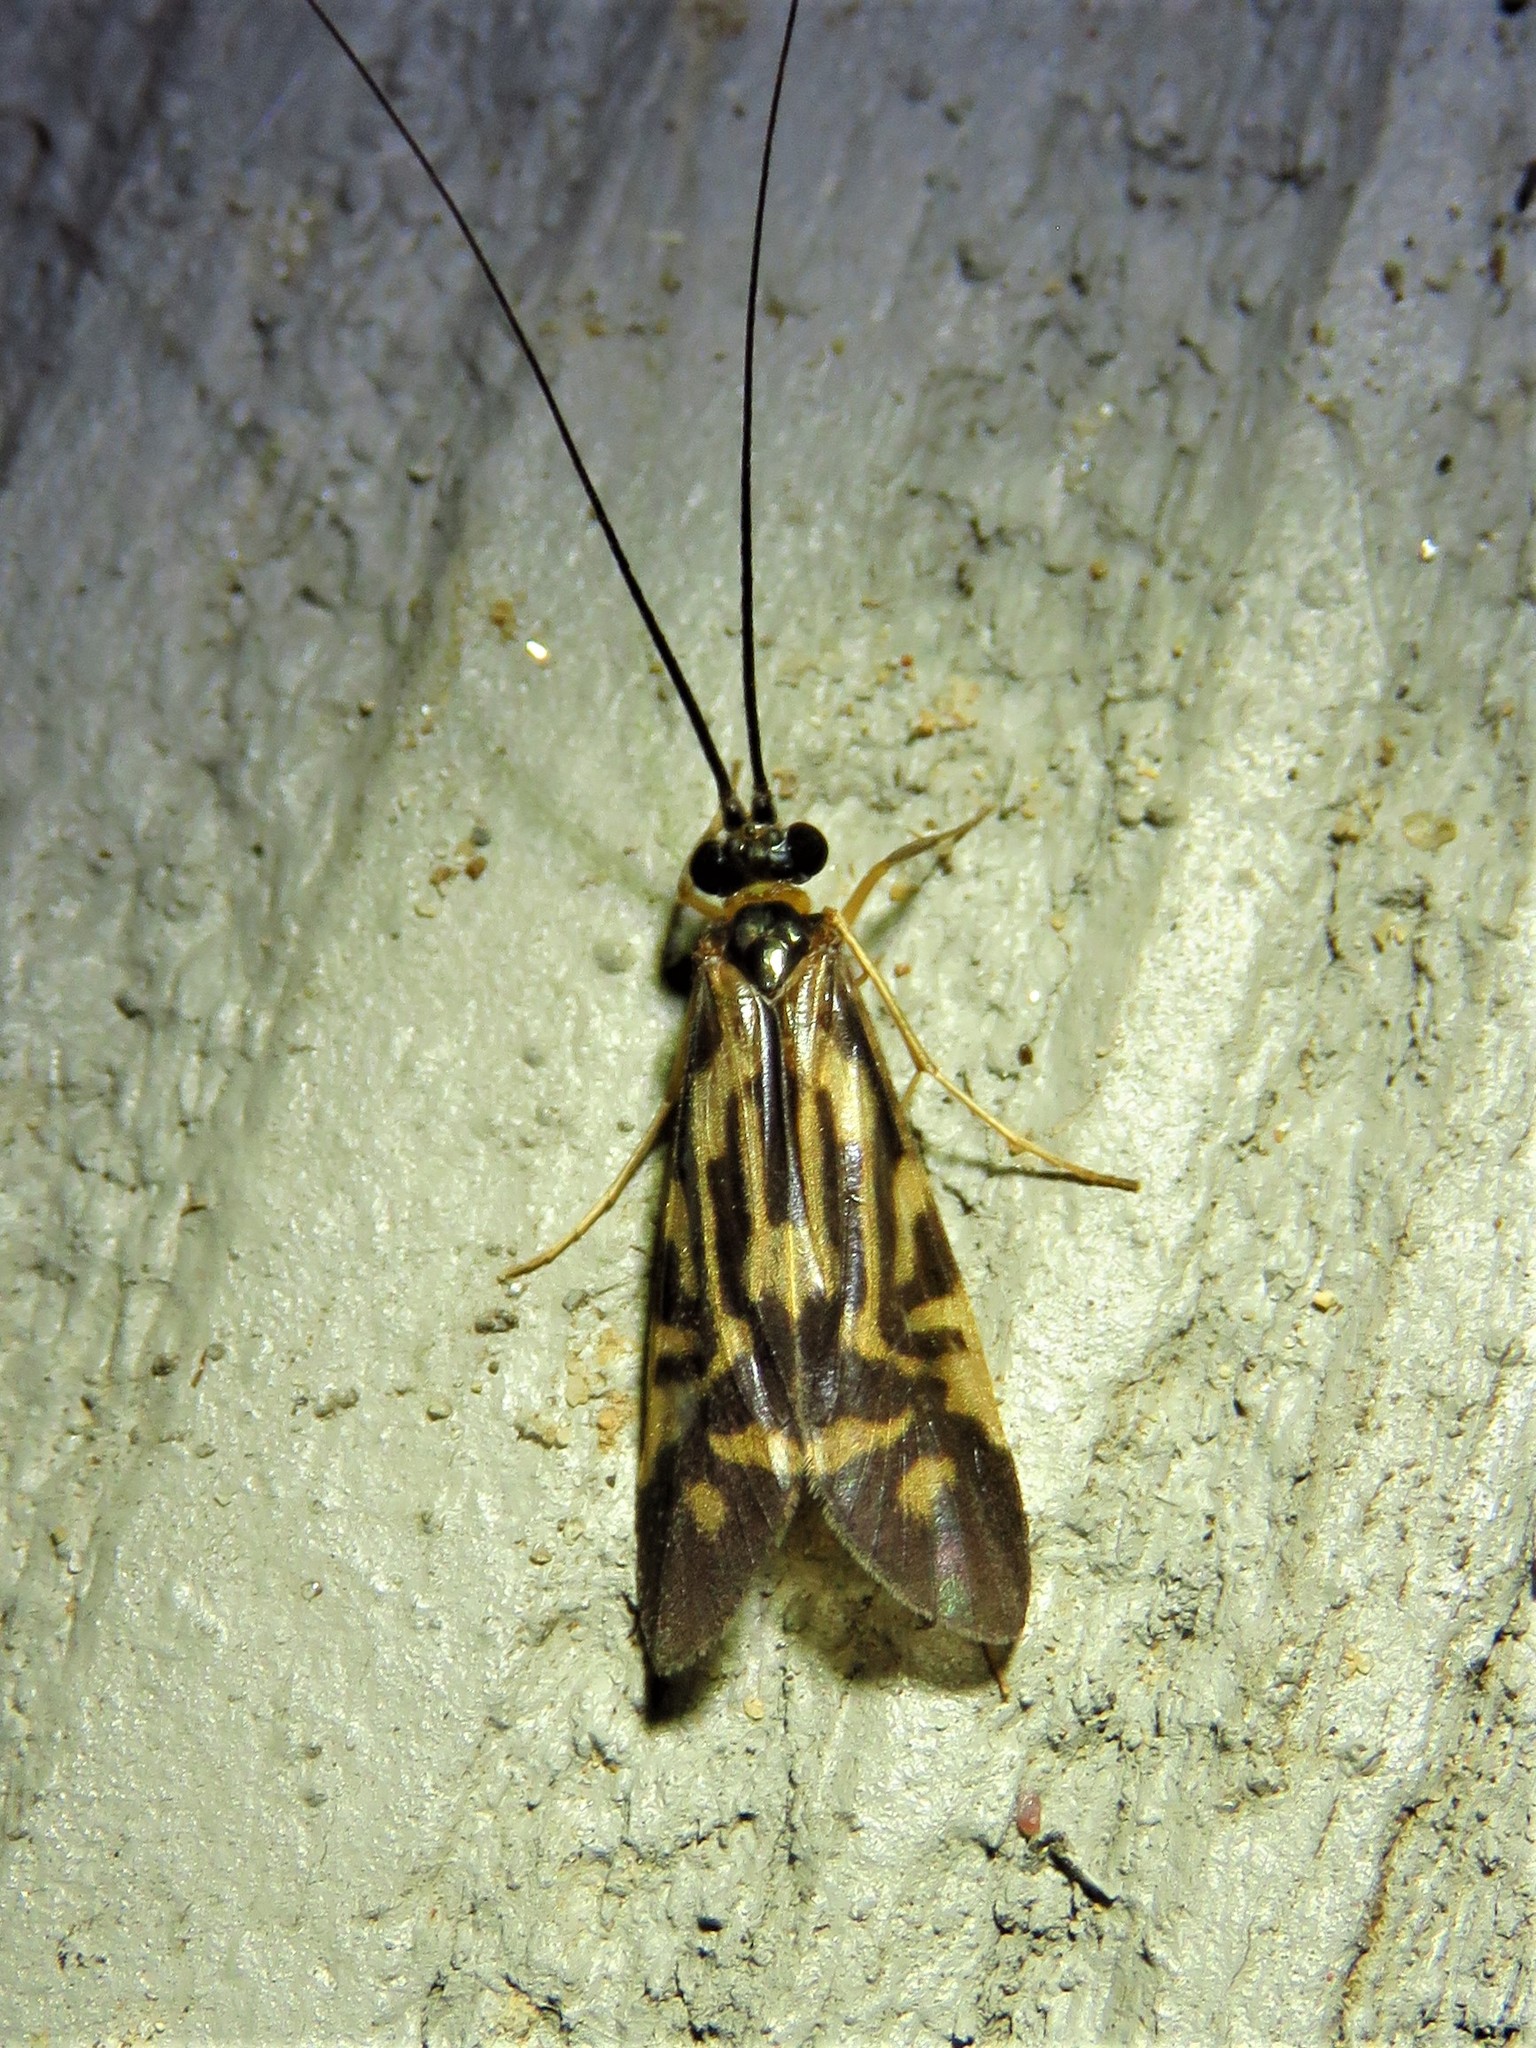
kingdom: Animalia
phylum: Arthropoda
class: Insecta
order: Trichoptera
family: Hydropsychidae
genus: Macrostemum
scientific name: Macrostemum carolina
